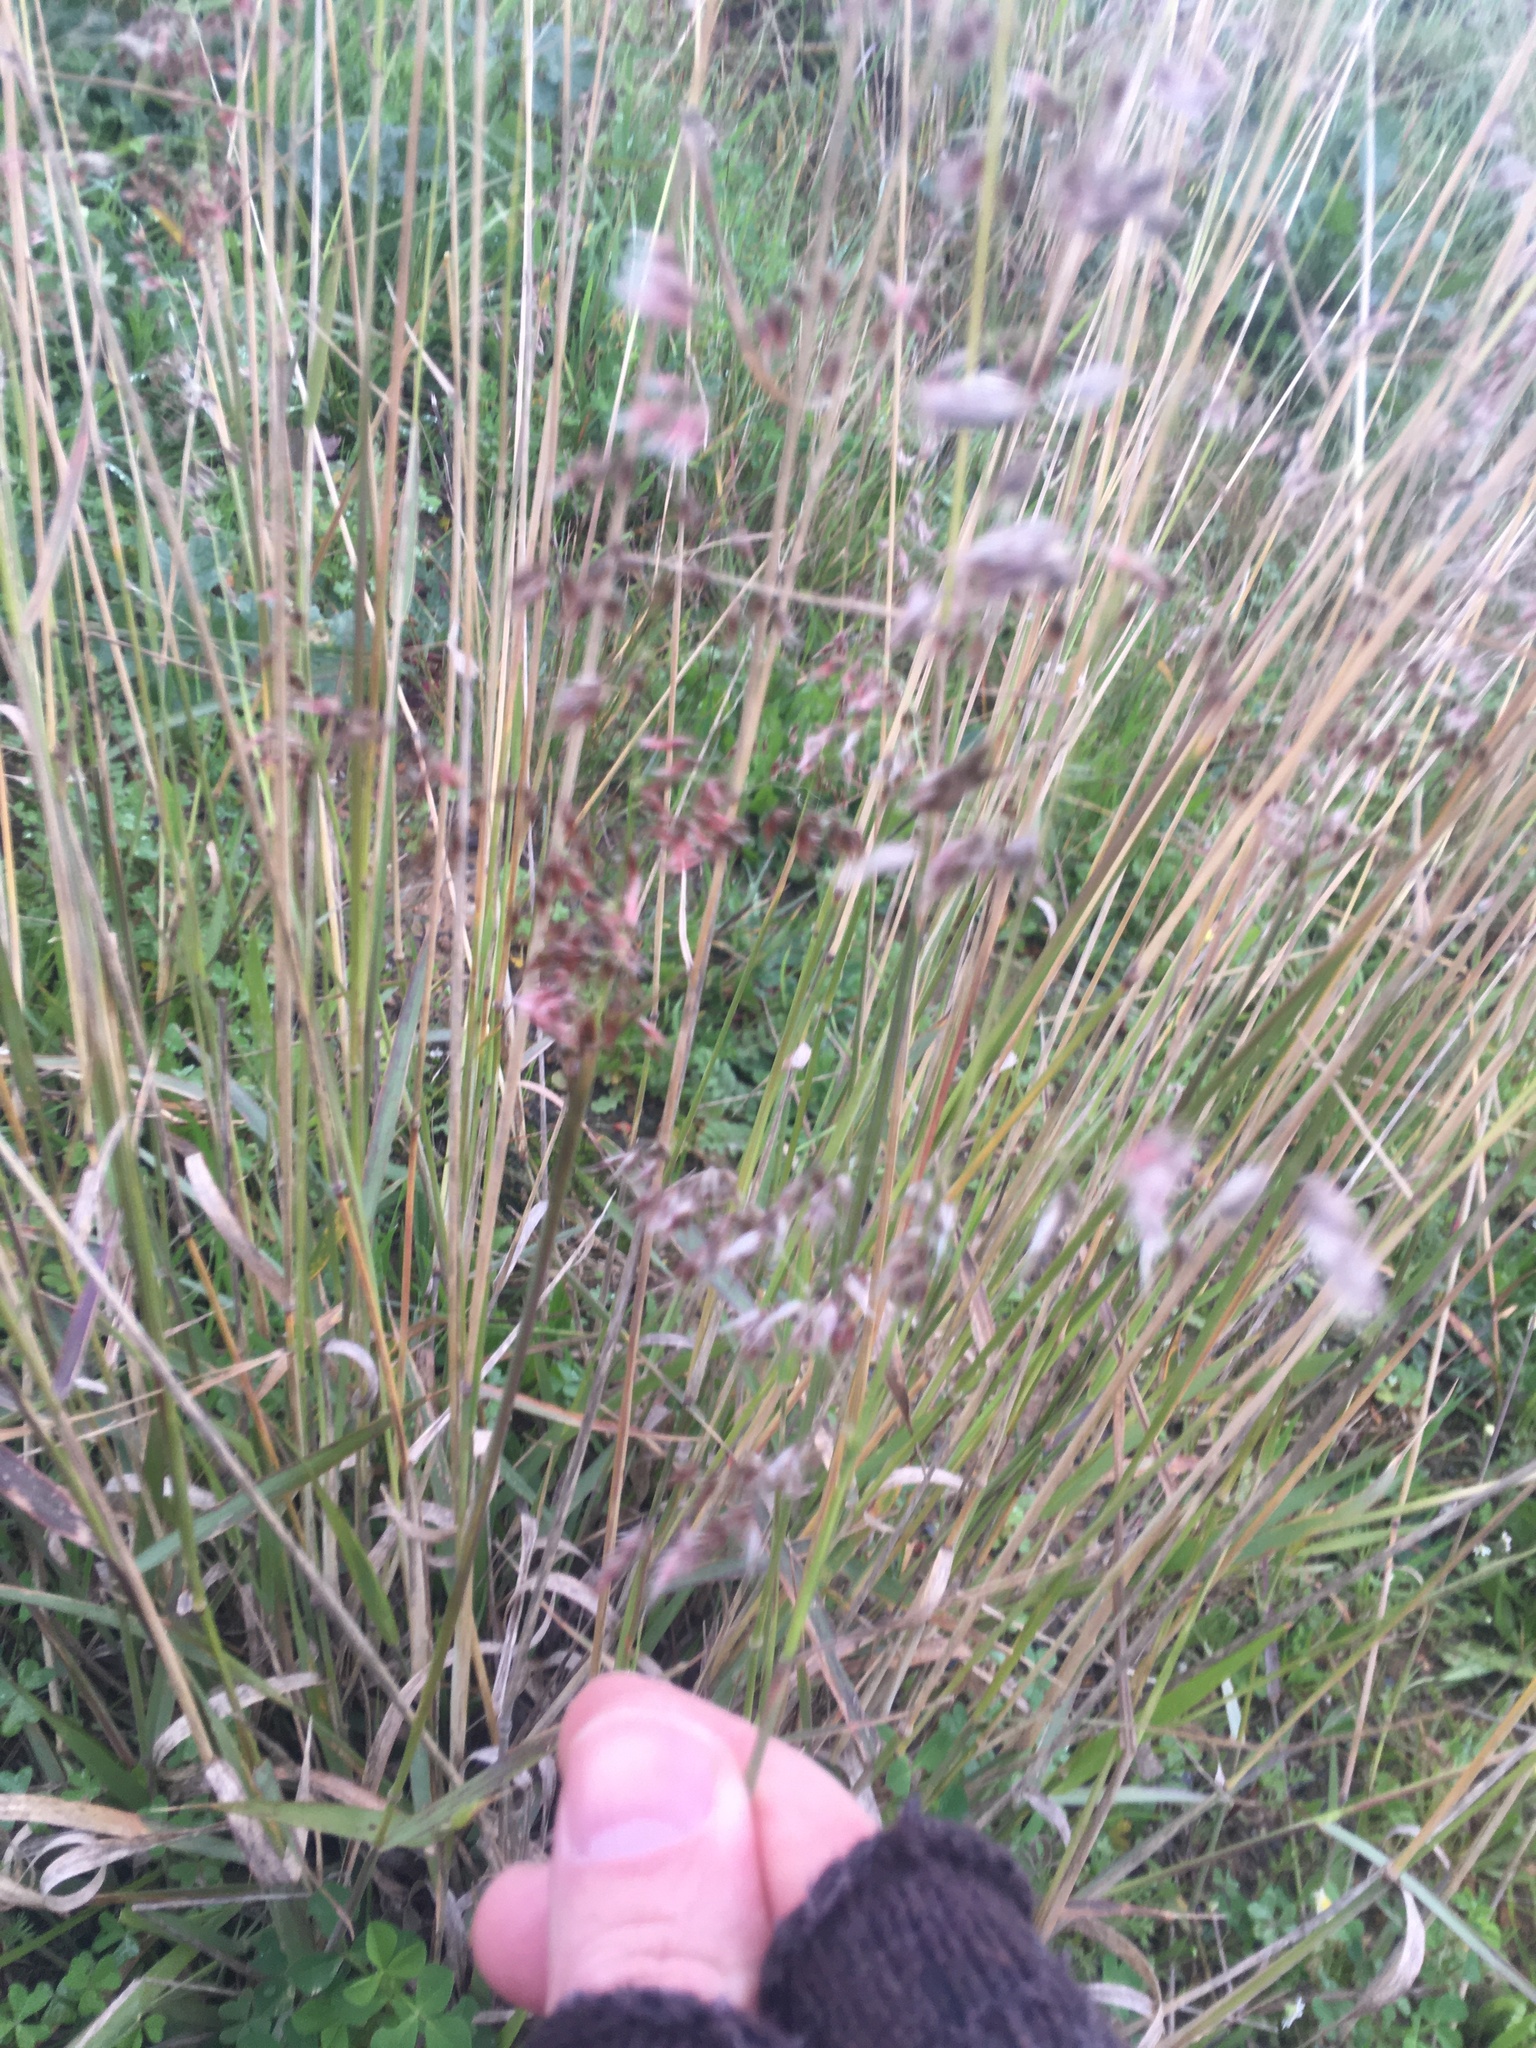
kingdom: Plantae
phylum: Tracheophyta
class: Liliopsida
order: Poales
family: Poaceae
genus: Melinis
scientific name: Melinis repens
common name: Rose natal grass
